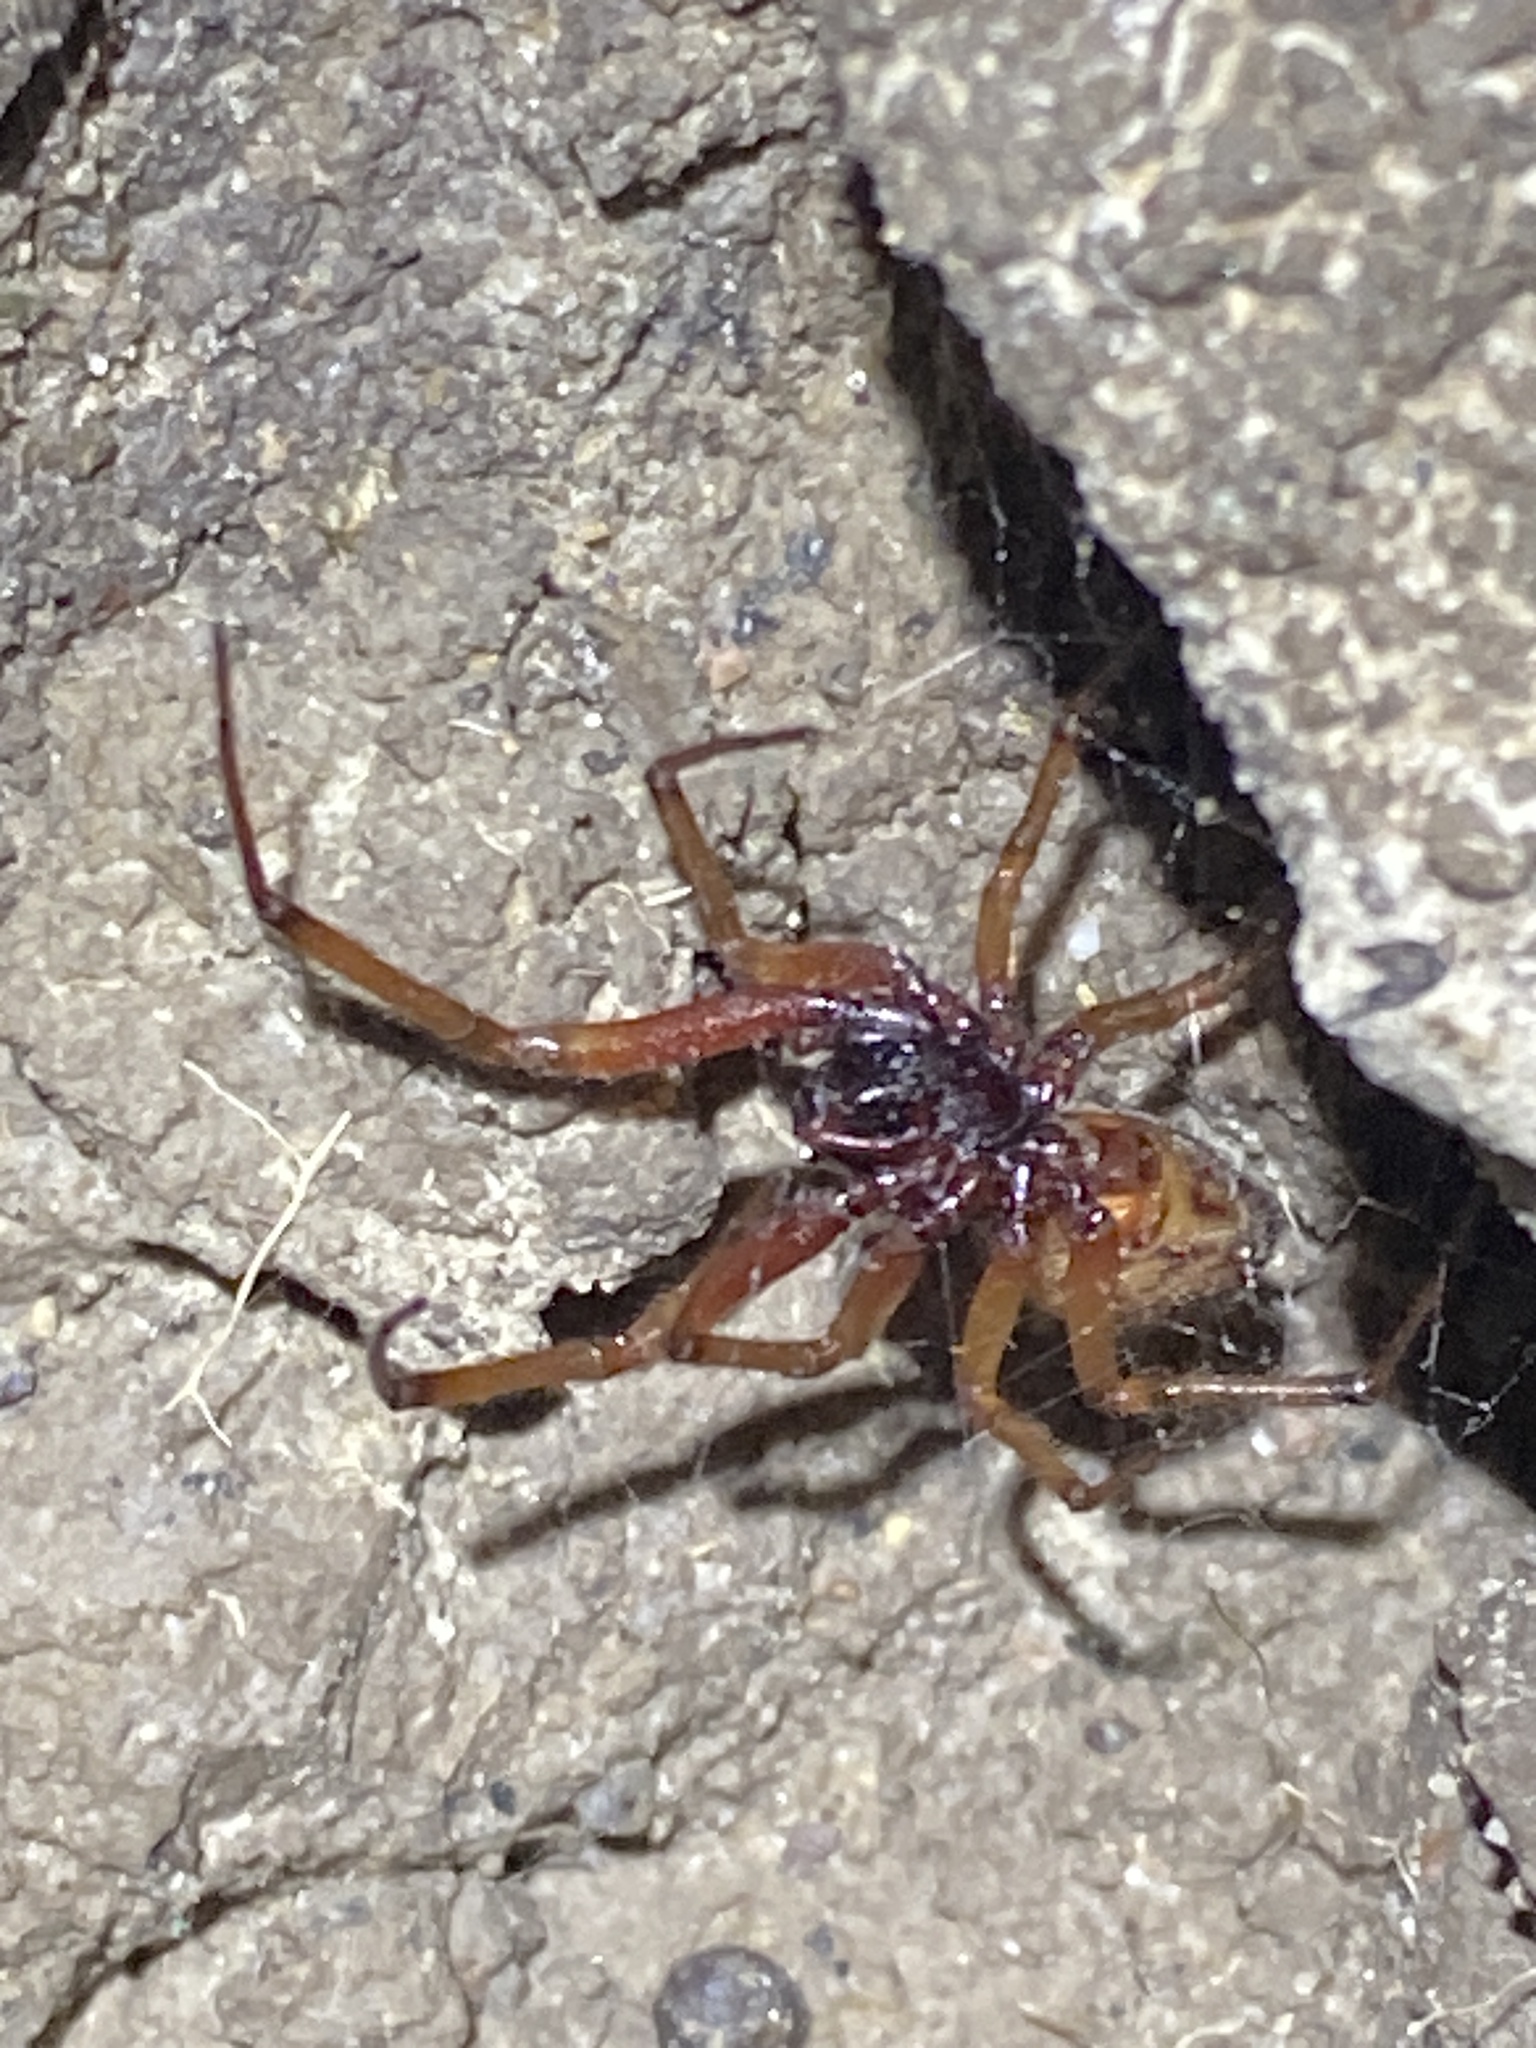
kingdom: Animalia
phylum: Arthropoda
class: Arachnida
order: Araneae
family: Theridiidae
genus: Steatoda
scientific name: Steatoda nobilis
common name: Cobweb weaver
